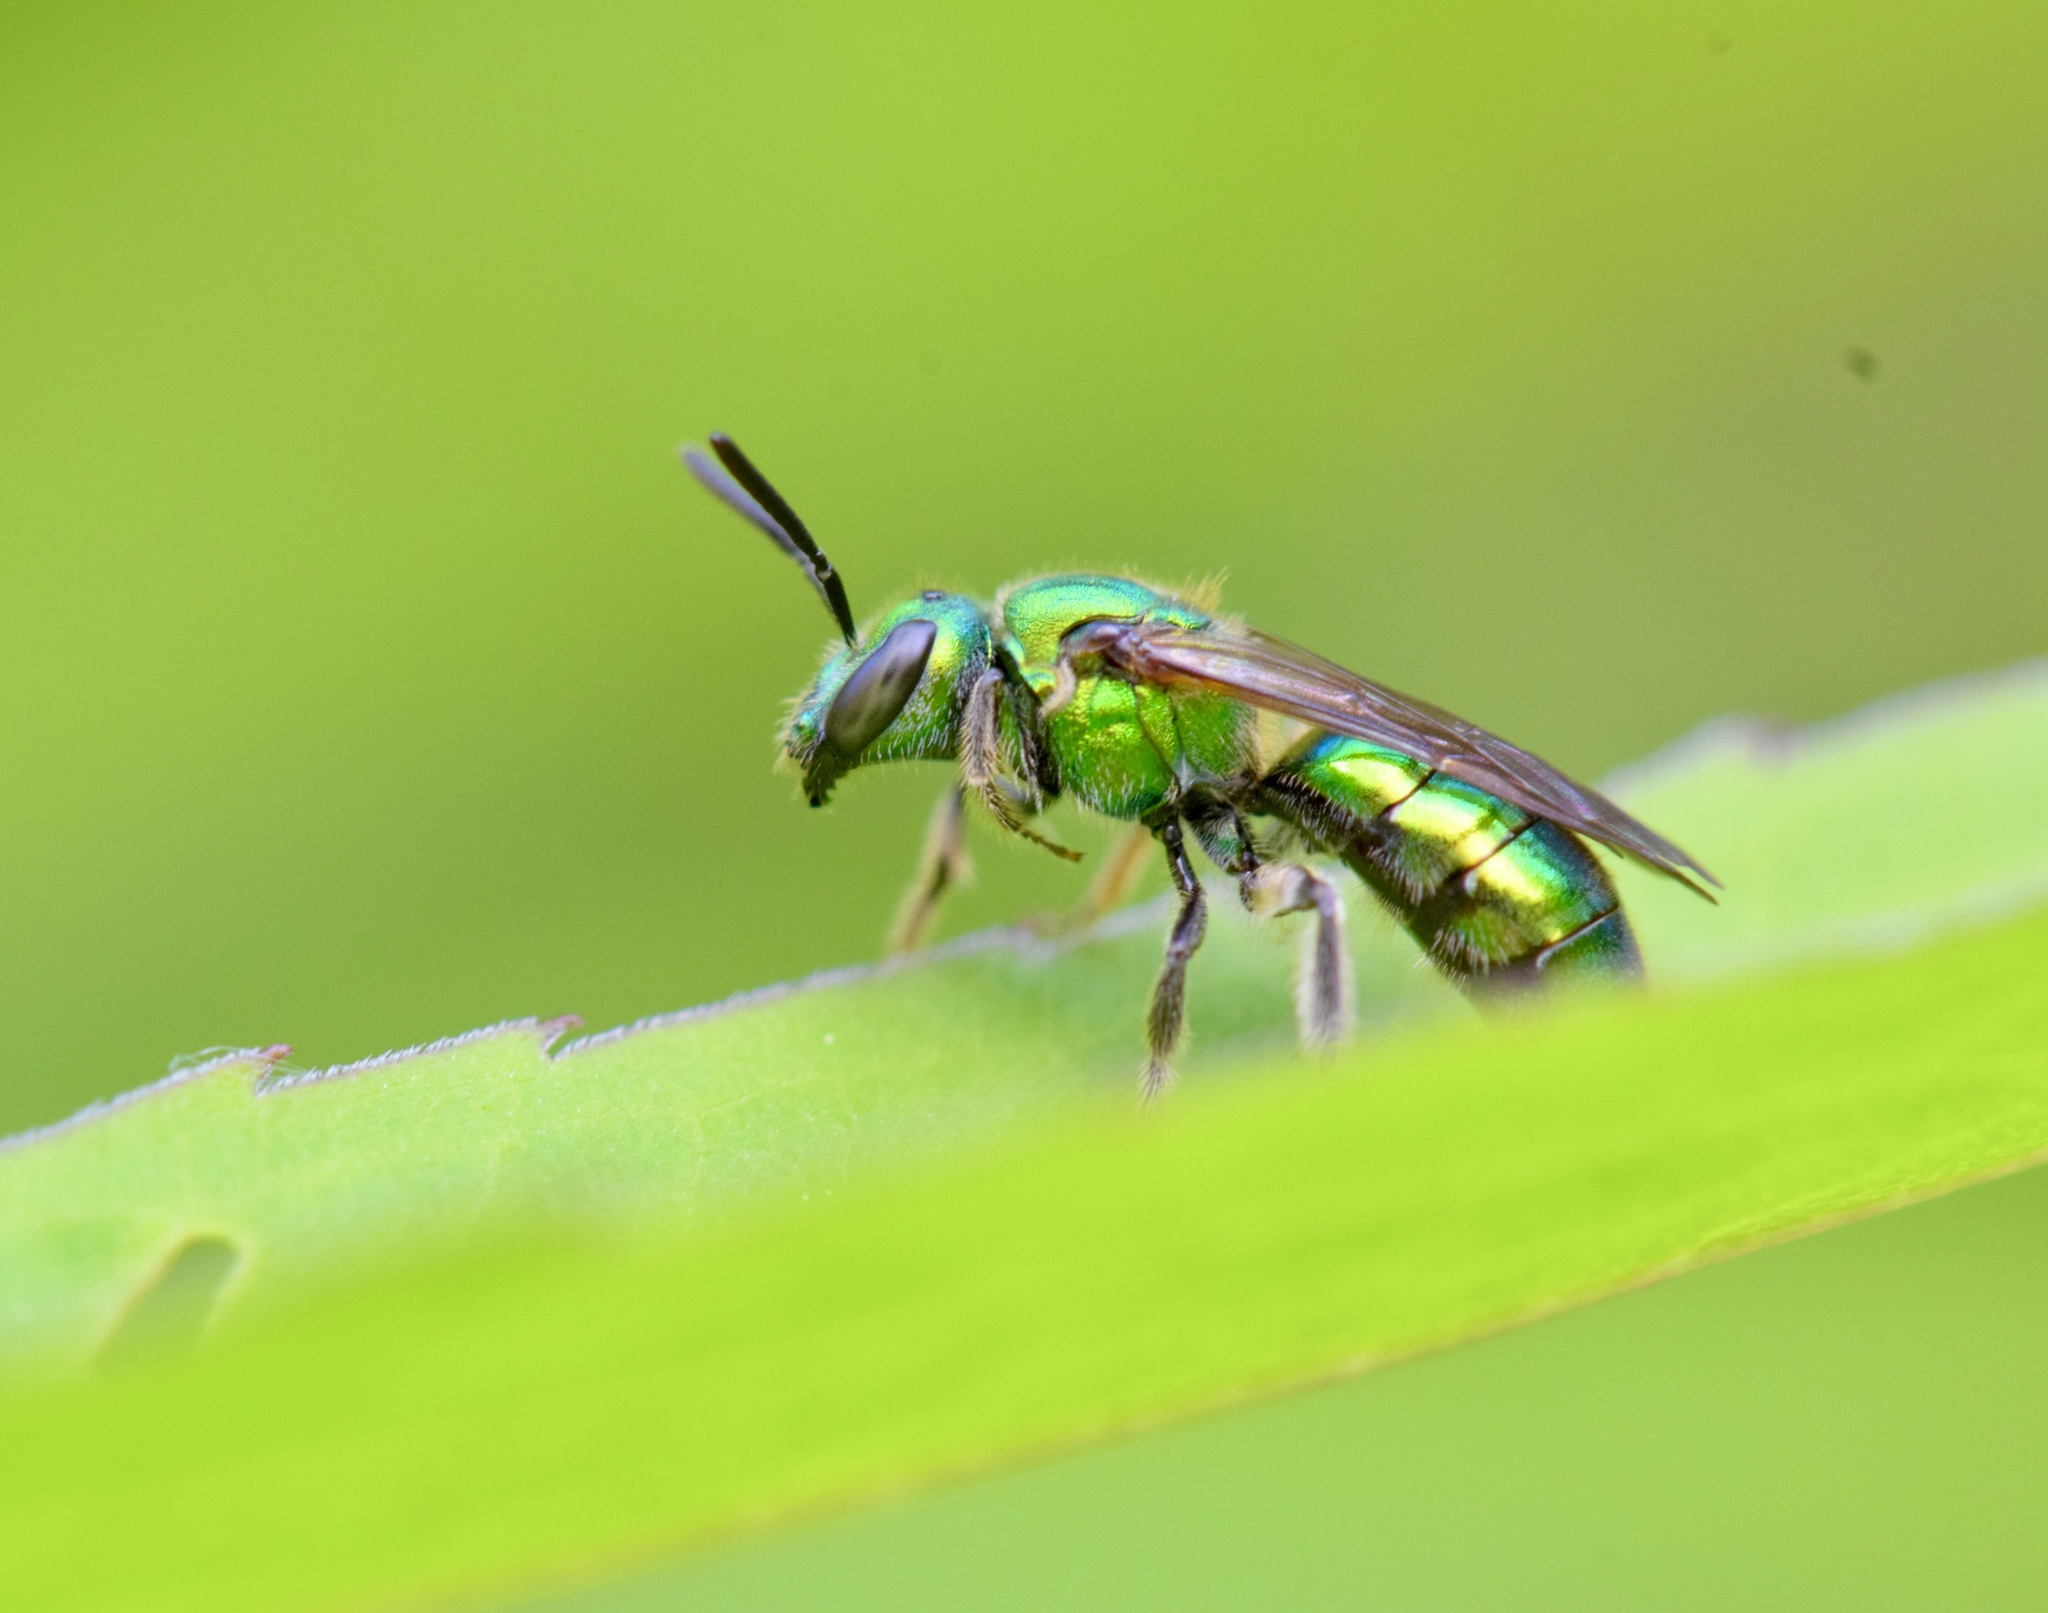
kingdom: Animalia
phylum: Arthropoda
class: Insecta
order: Hymenoptera
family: Halictidae
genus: Augochlora
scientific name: Augochlora pura
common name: Pure green sweat bee
